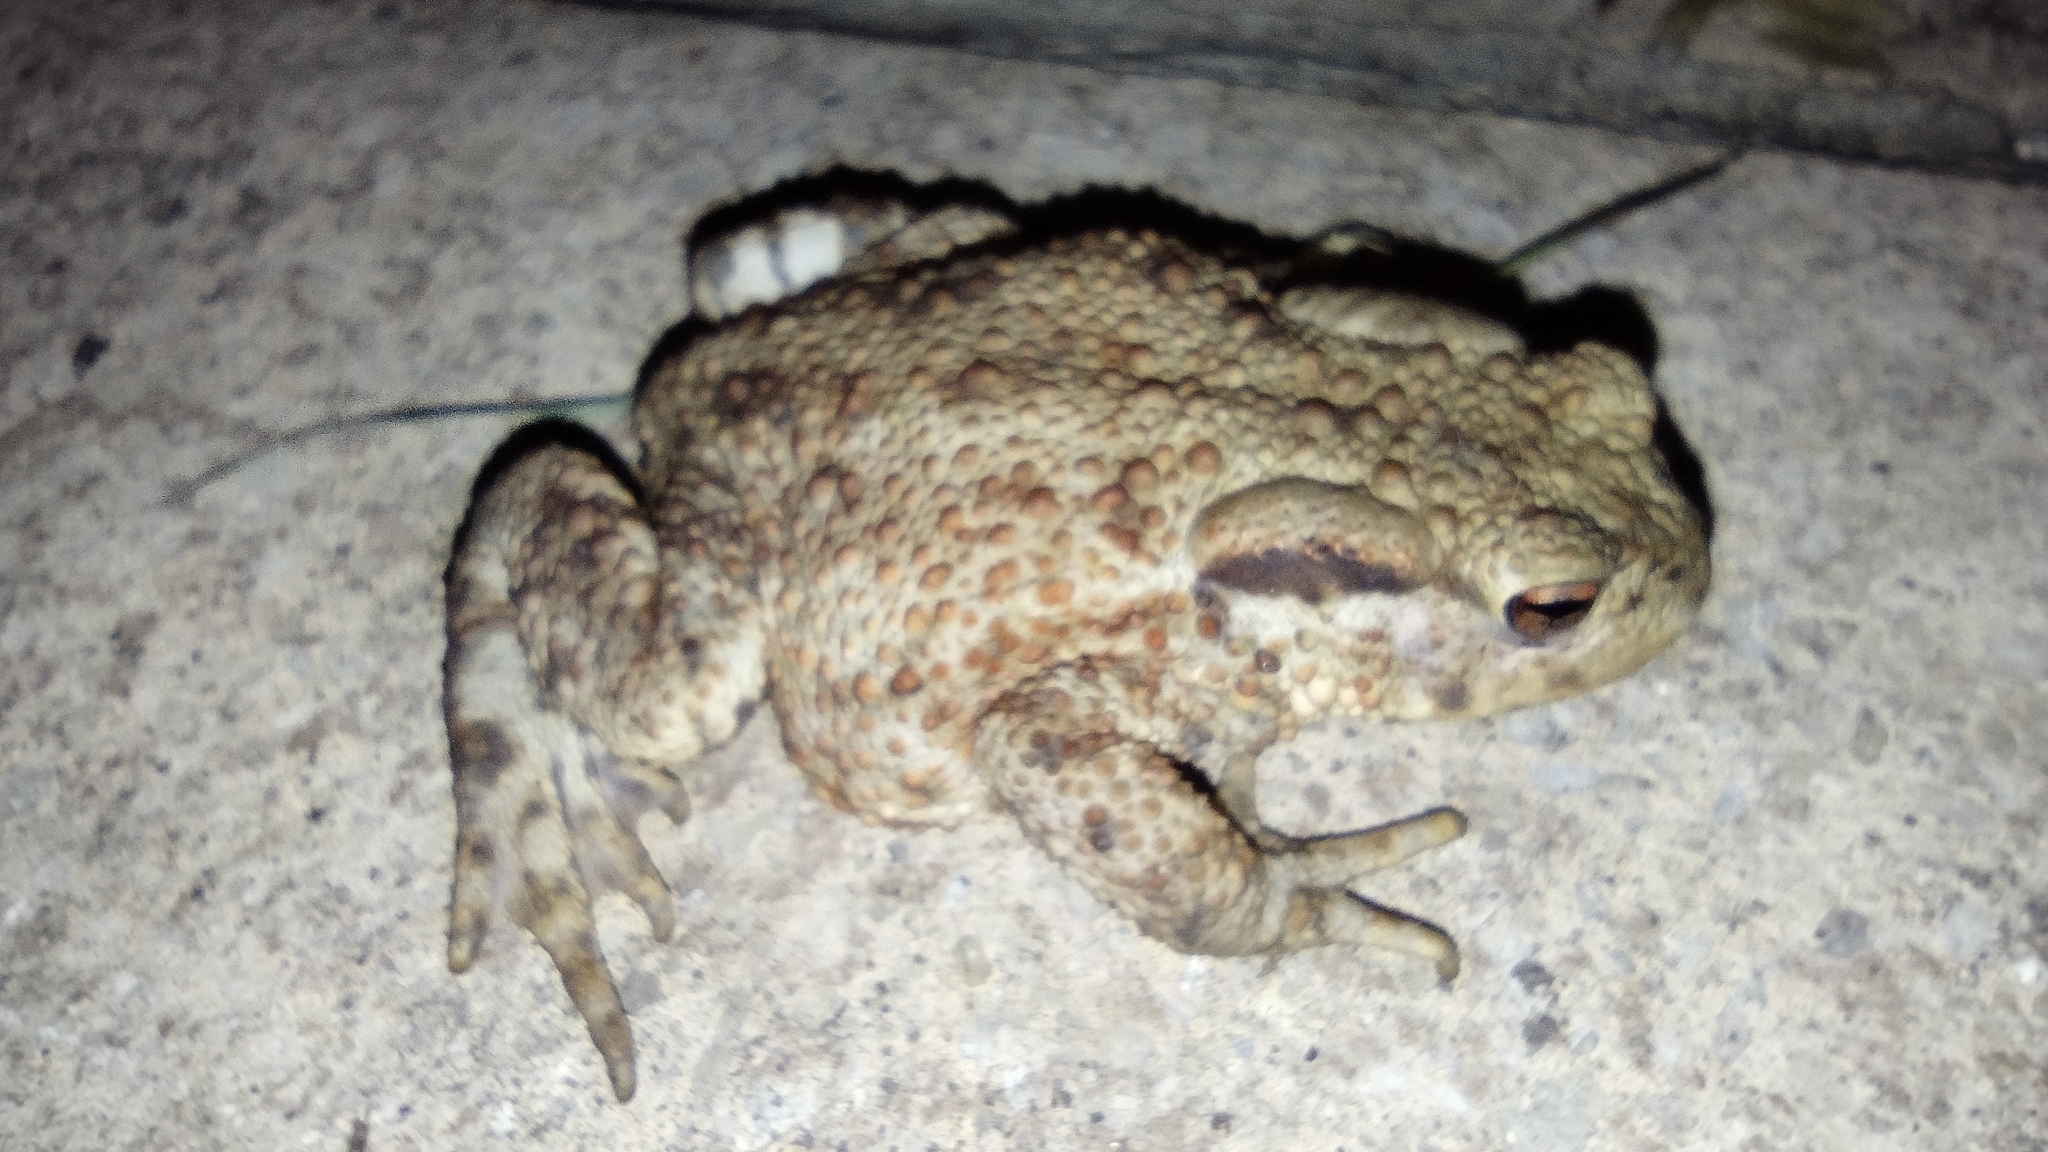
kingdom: Animalia
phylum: Chordata
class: Amphibia
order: Anura
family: Bufonidae
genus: Bufo
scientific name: Bufo bufo
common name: Common toad
